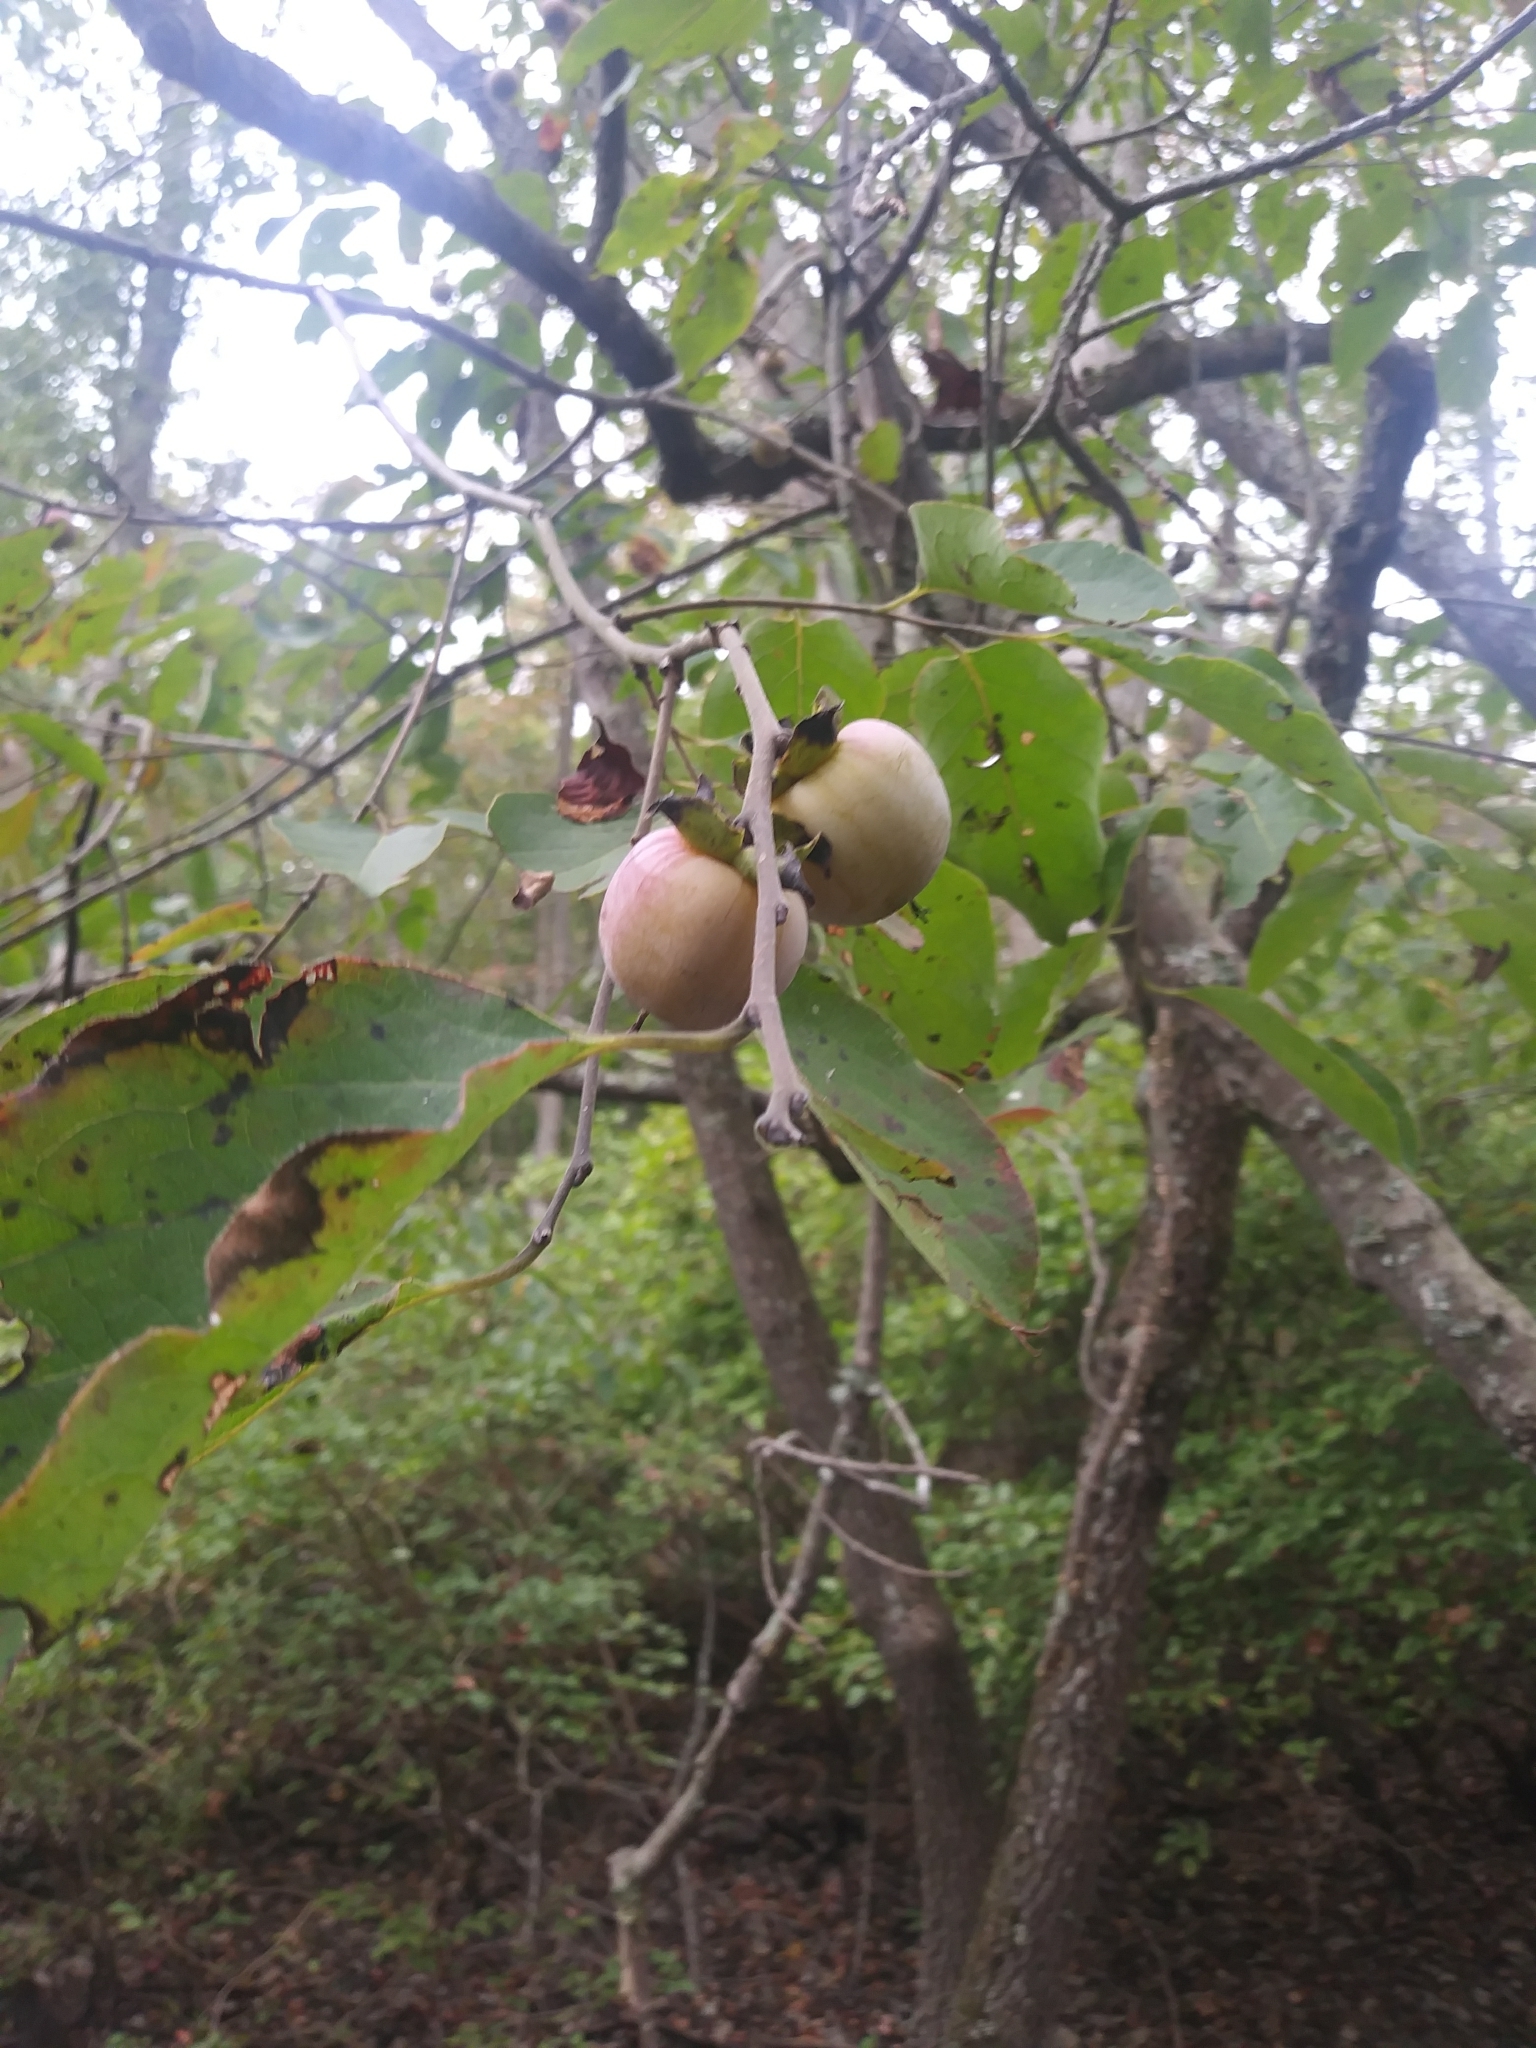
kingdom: Plantae
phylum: Tracheophyta
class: Magnoliopsida
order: Ericales
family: Ebenaceae
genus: Diospyros
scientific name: Diospyros virginiana
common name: Persimmon
